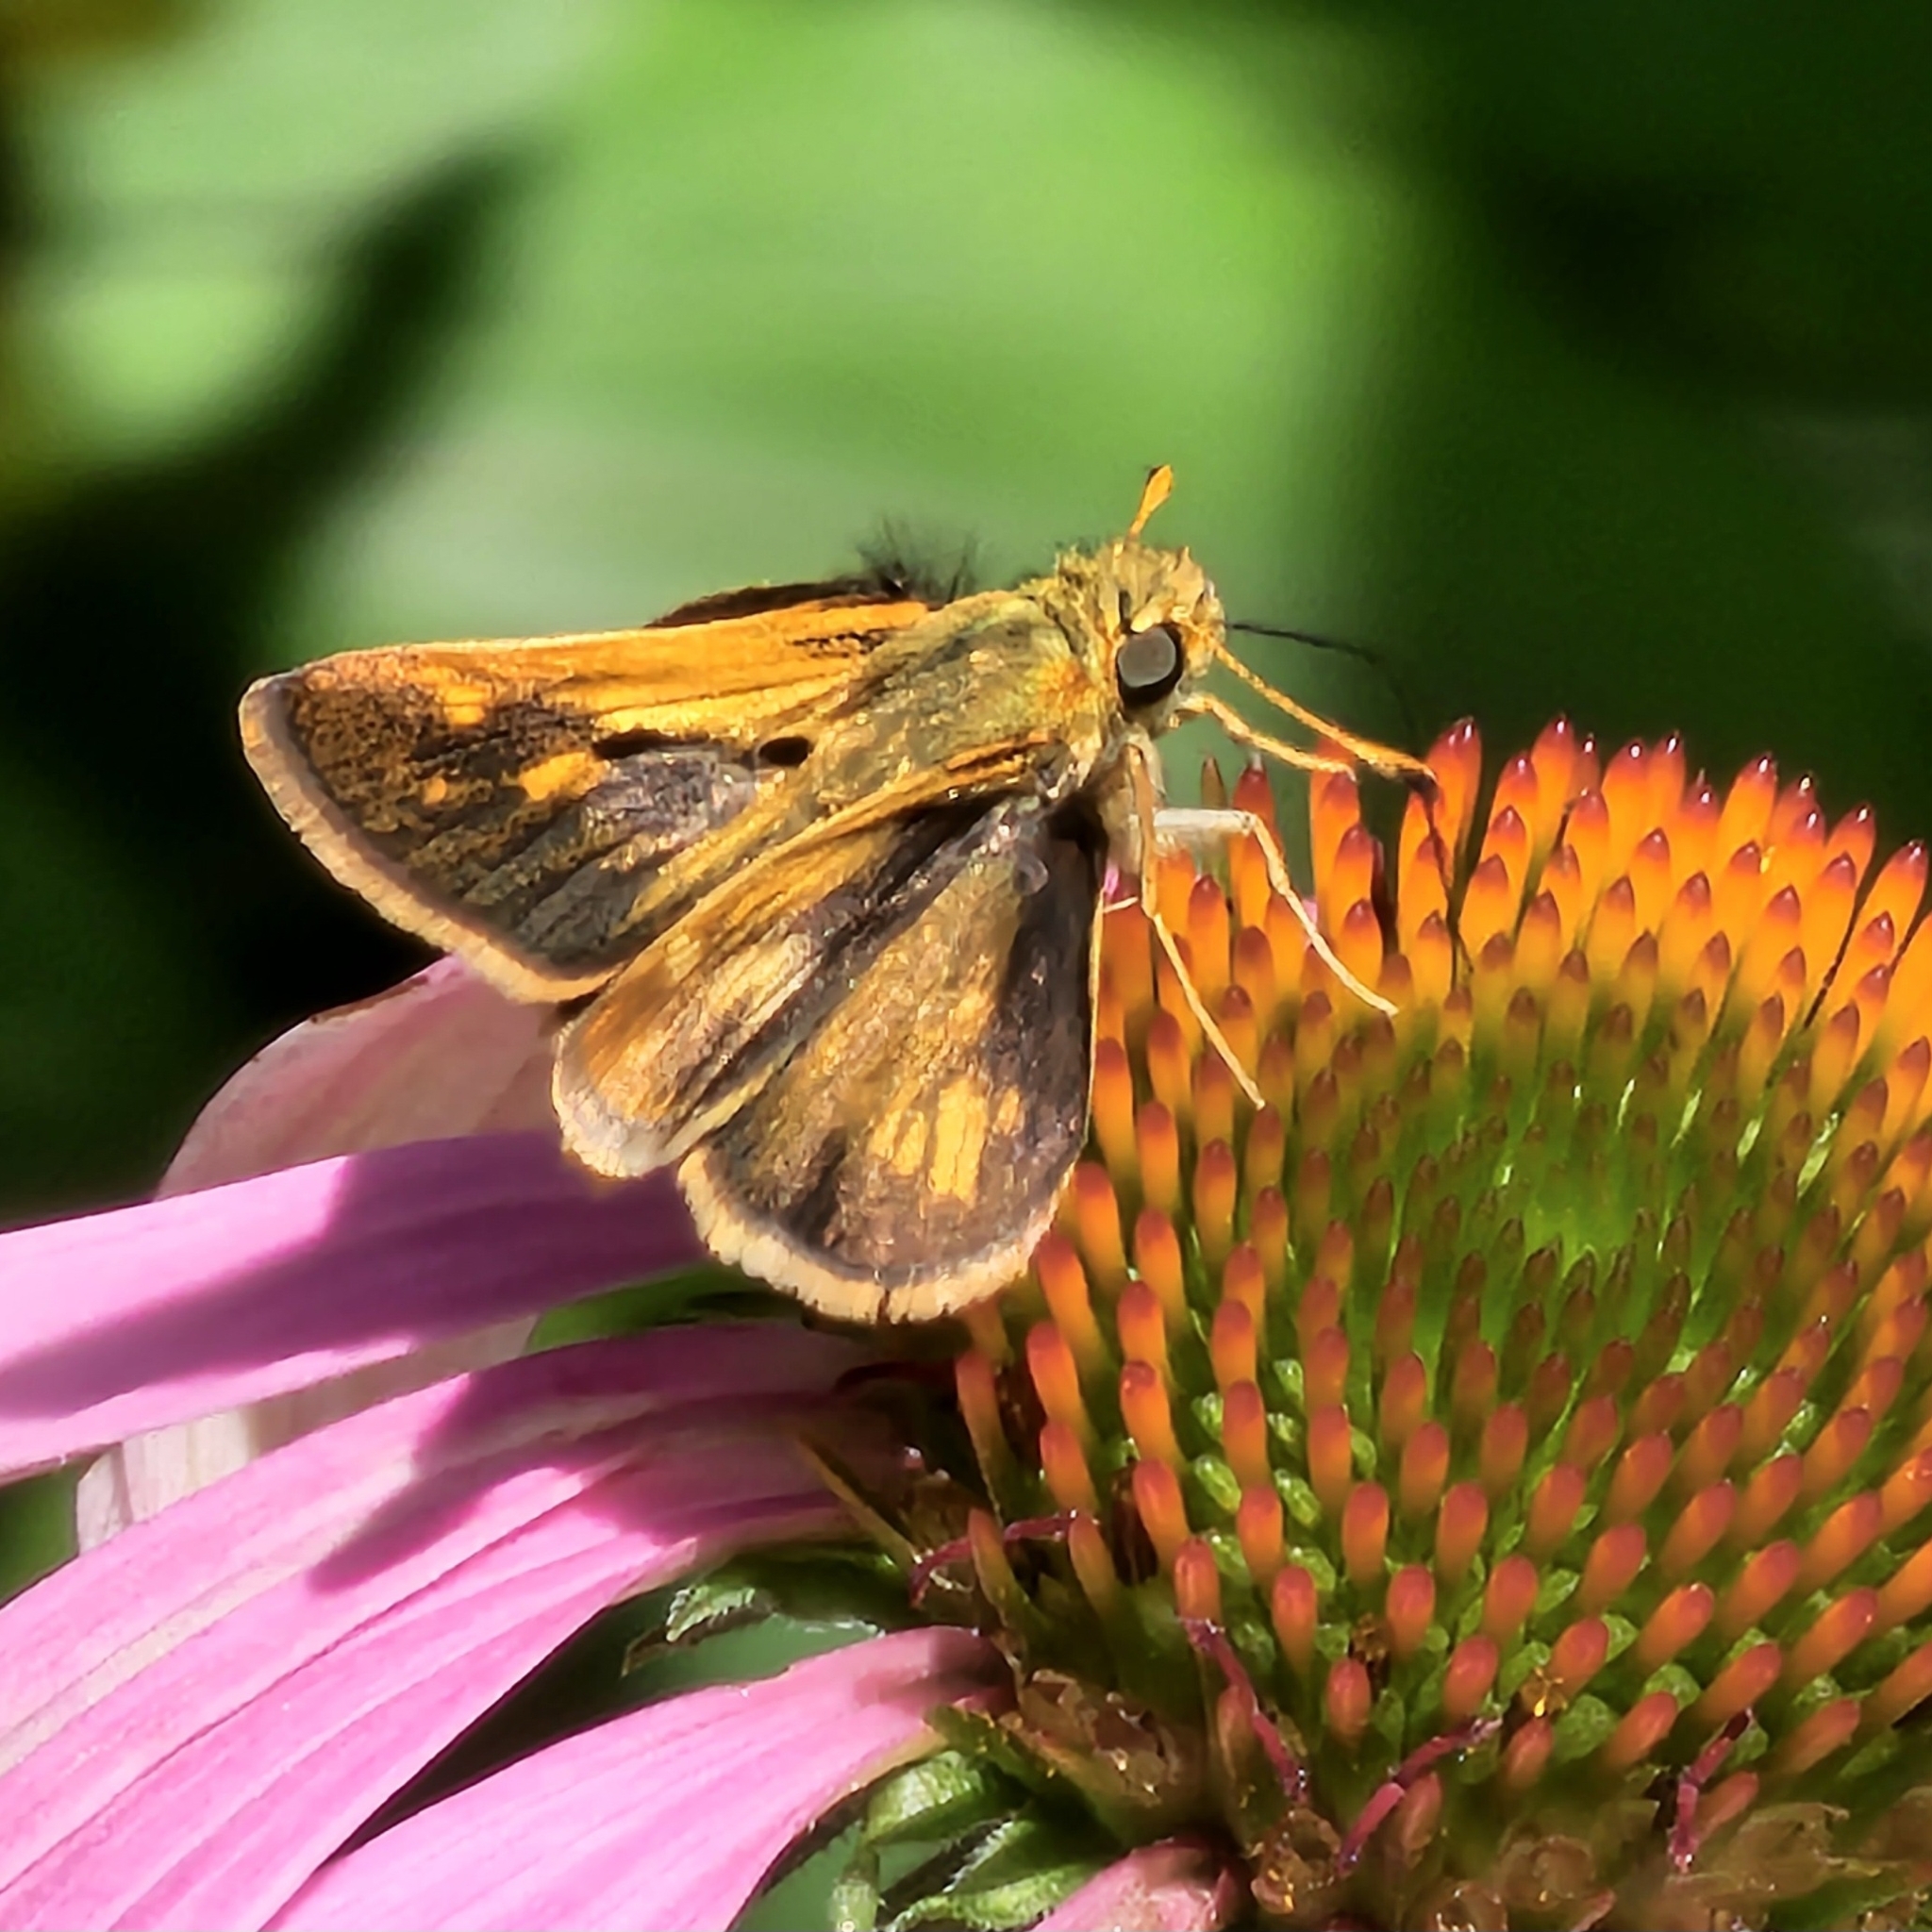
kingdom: Animalia
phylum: Arthropoda
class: Insecta
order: Lepidoptera
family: Hesperiidae
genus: Polites
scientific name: Polites coras
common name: Peck's skipper
